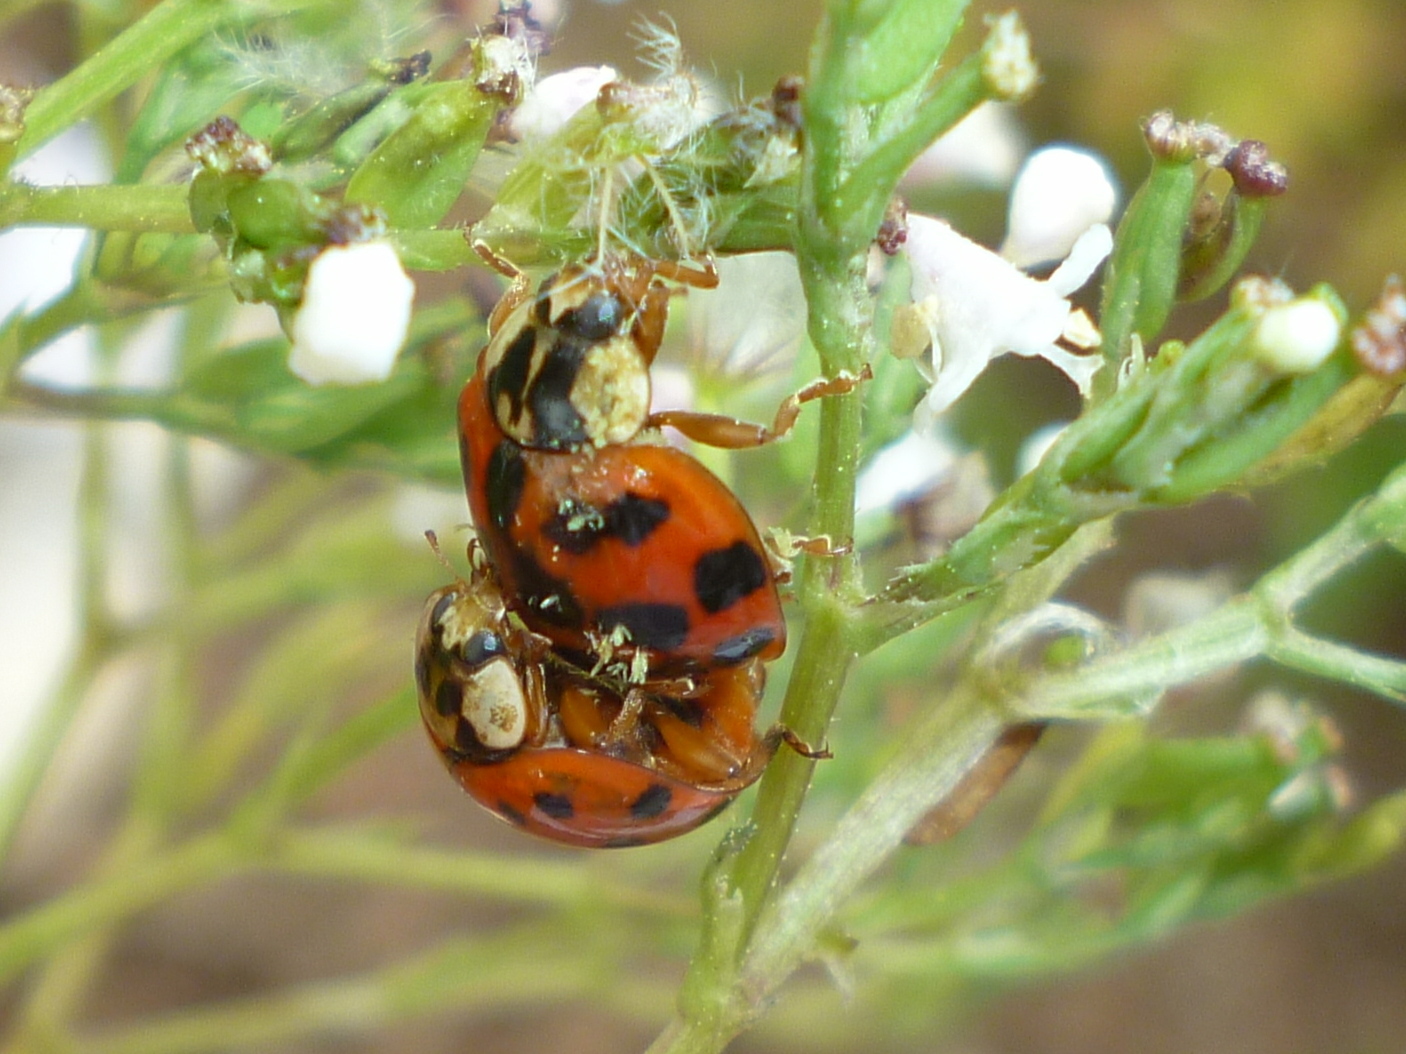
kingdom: Animalia
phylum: Arthropoda
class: Insecta
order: Coleoptera
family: Coccinellidae
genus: Harmonia
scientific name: Harmonia axyridis
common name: Harlequin ladybird
